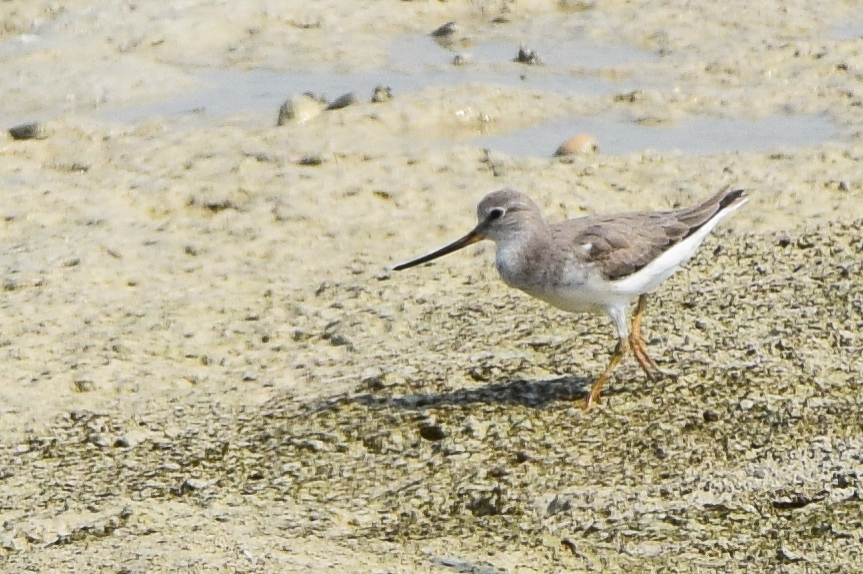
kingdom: Animalia
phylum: Chordata
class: Aves
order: Charadriiformes
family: Scolopacidae
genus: Xenus
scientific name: Xenus cinereus
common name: Terek sandpiper
